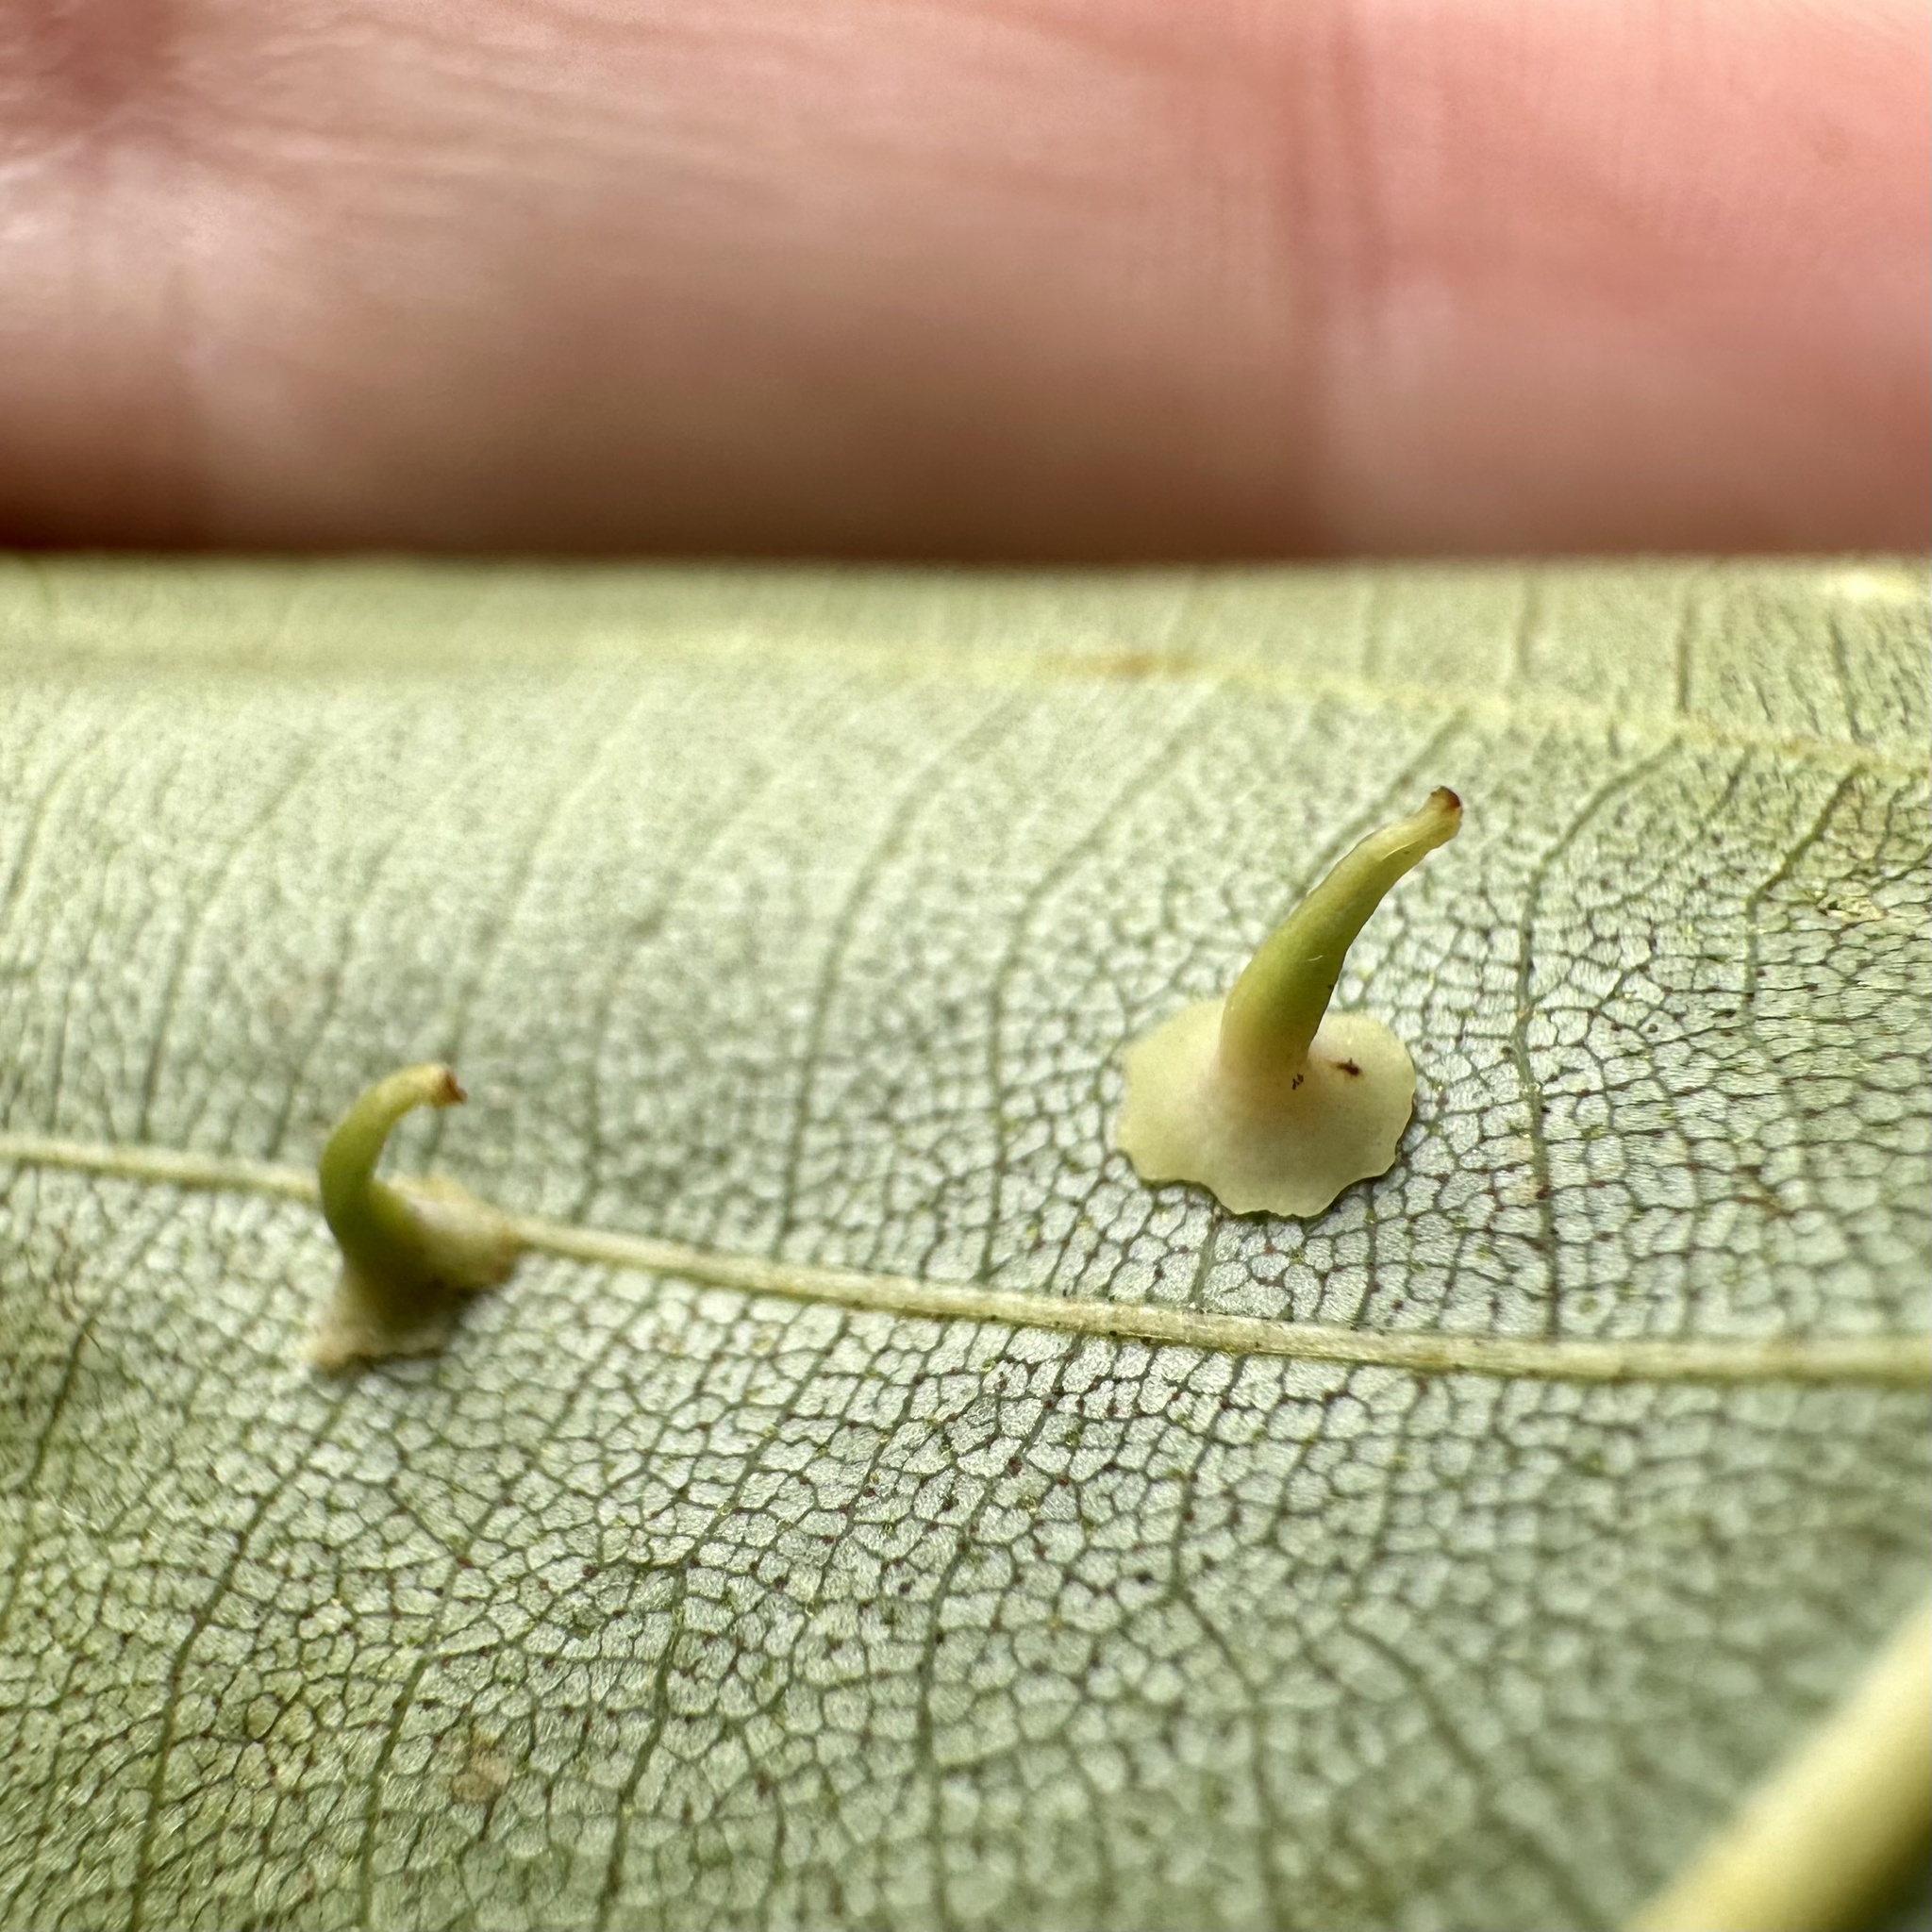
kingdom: Animalia
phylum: Arthropoda
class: Insecta
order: Diptera
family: Cecidomyiidae
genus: Caryomyia
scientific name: Caryomyia stellata
